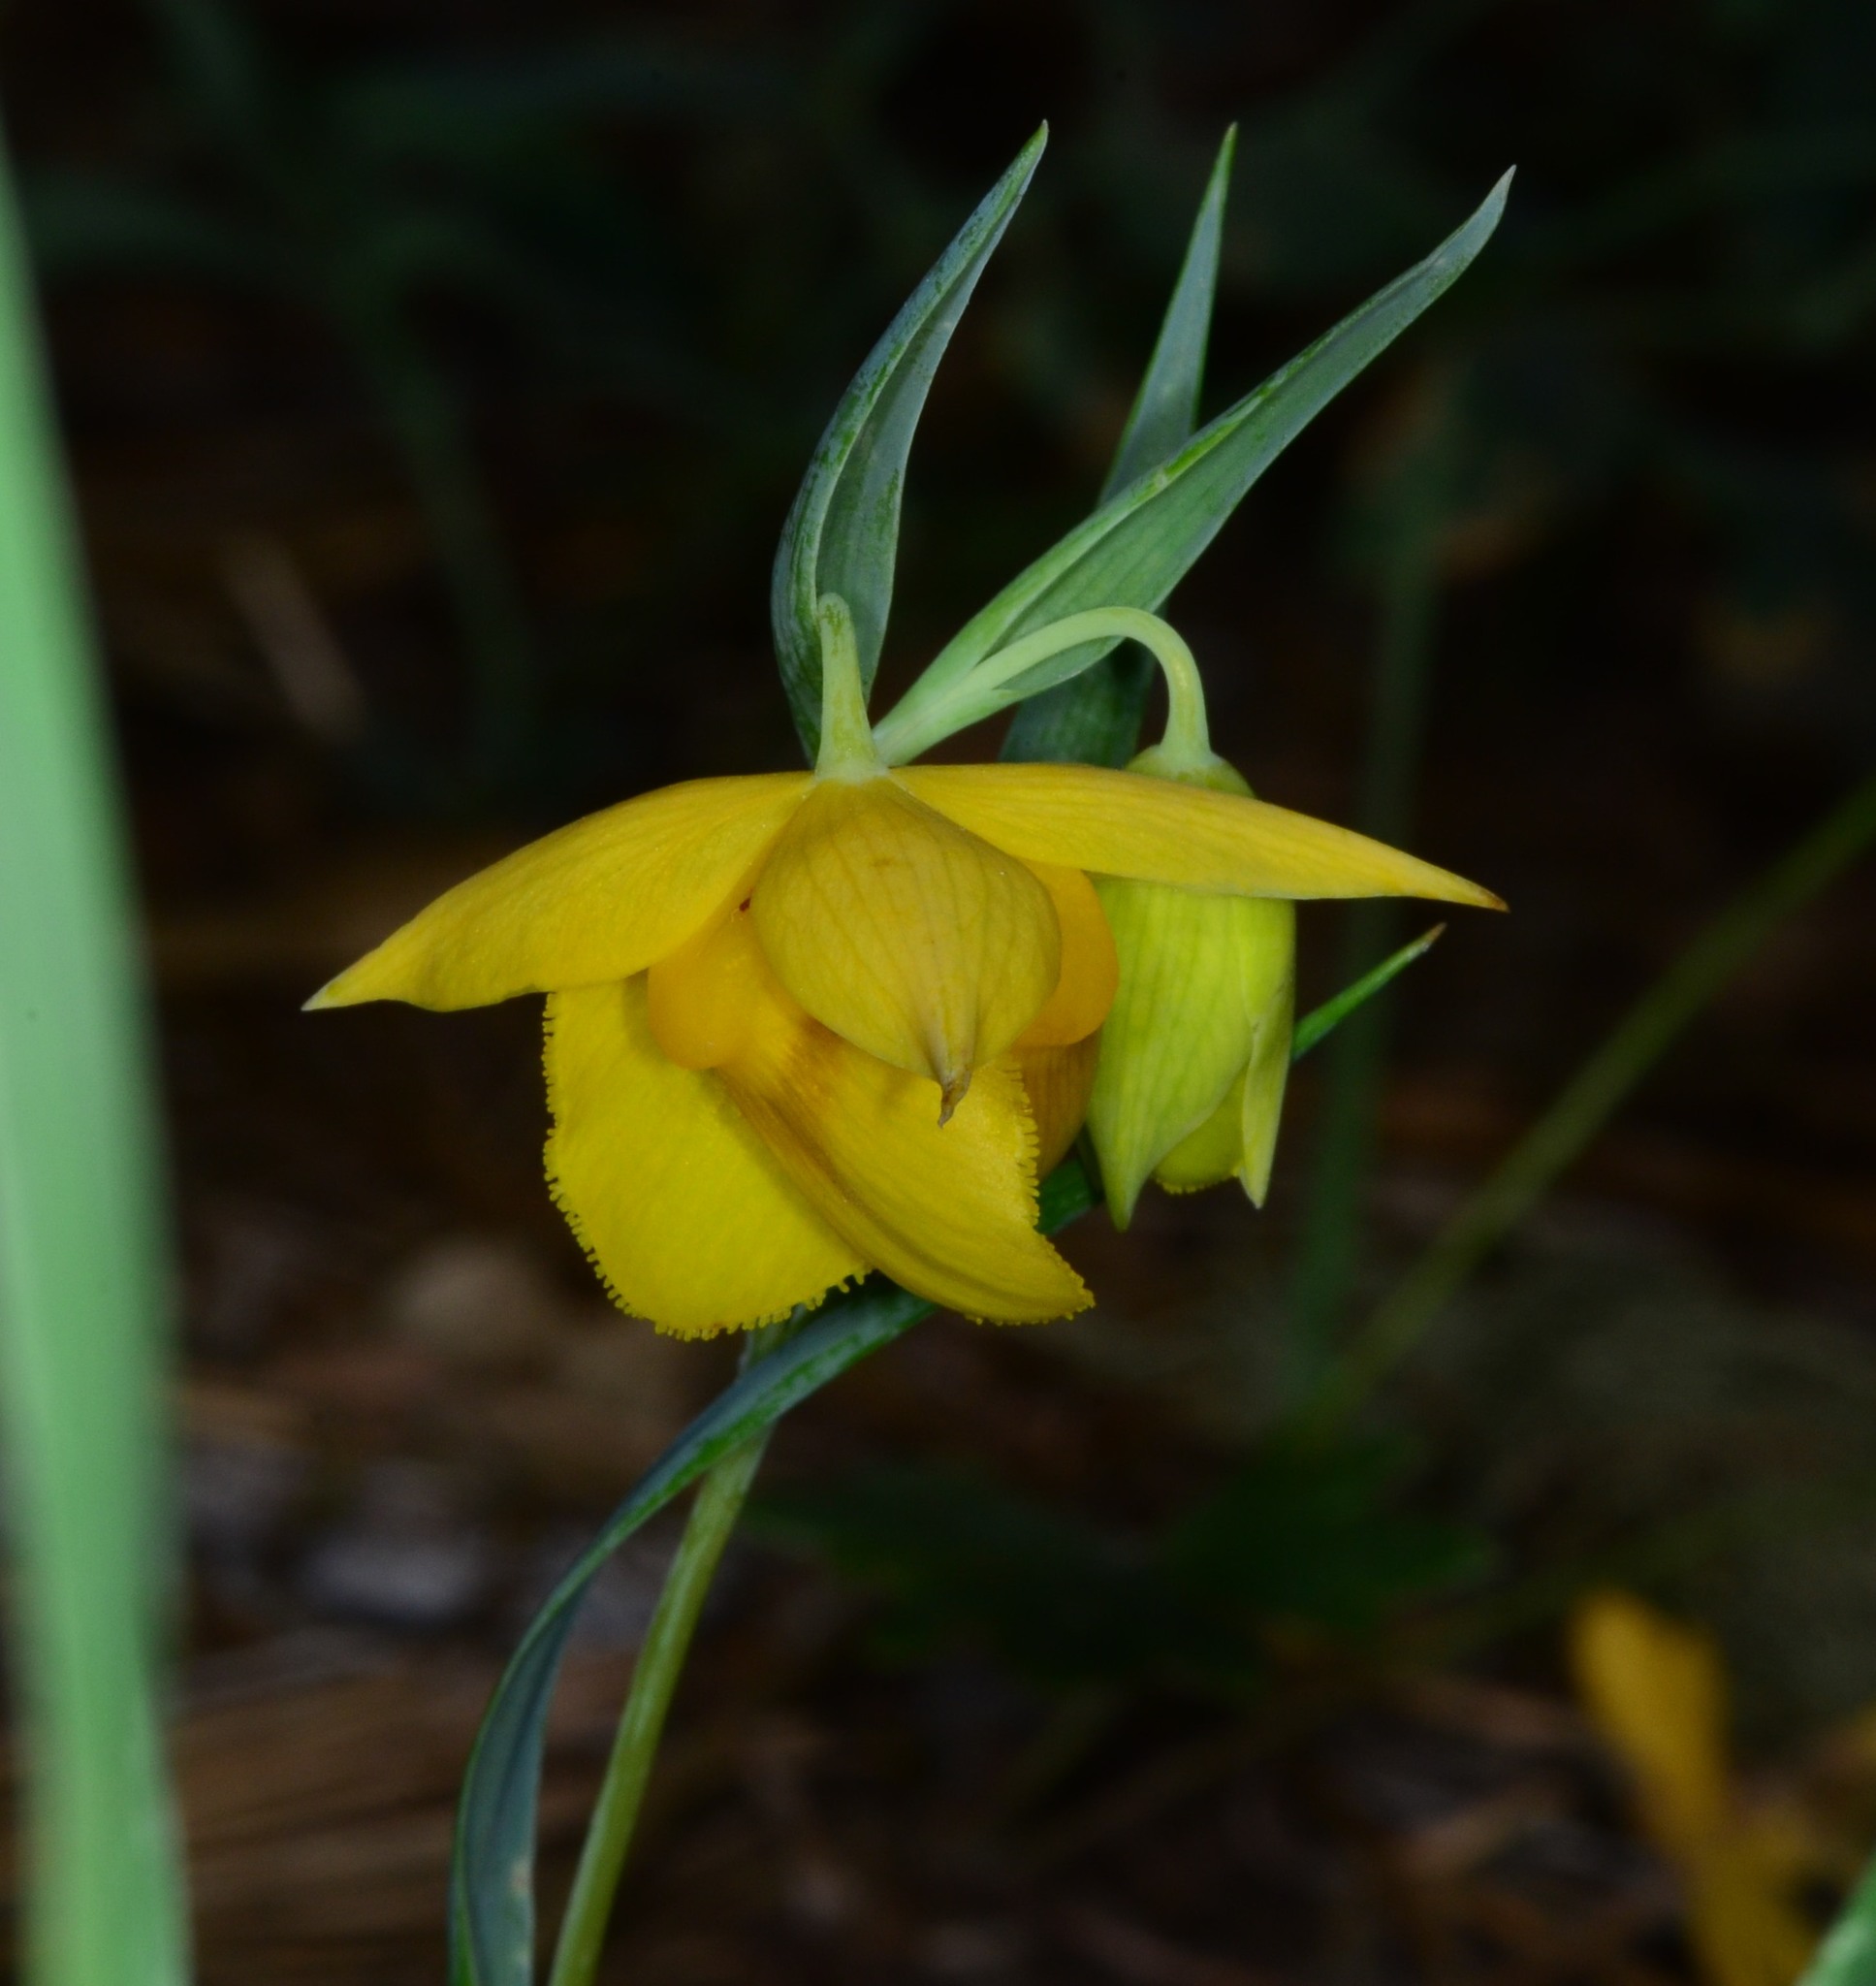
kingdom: Plantae
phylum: Tracheophyta
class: Liliopsida
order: Liliales
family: Liliaceae
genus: Calochortus
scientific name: Calochortus amabilis
